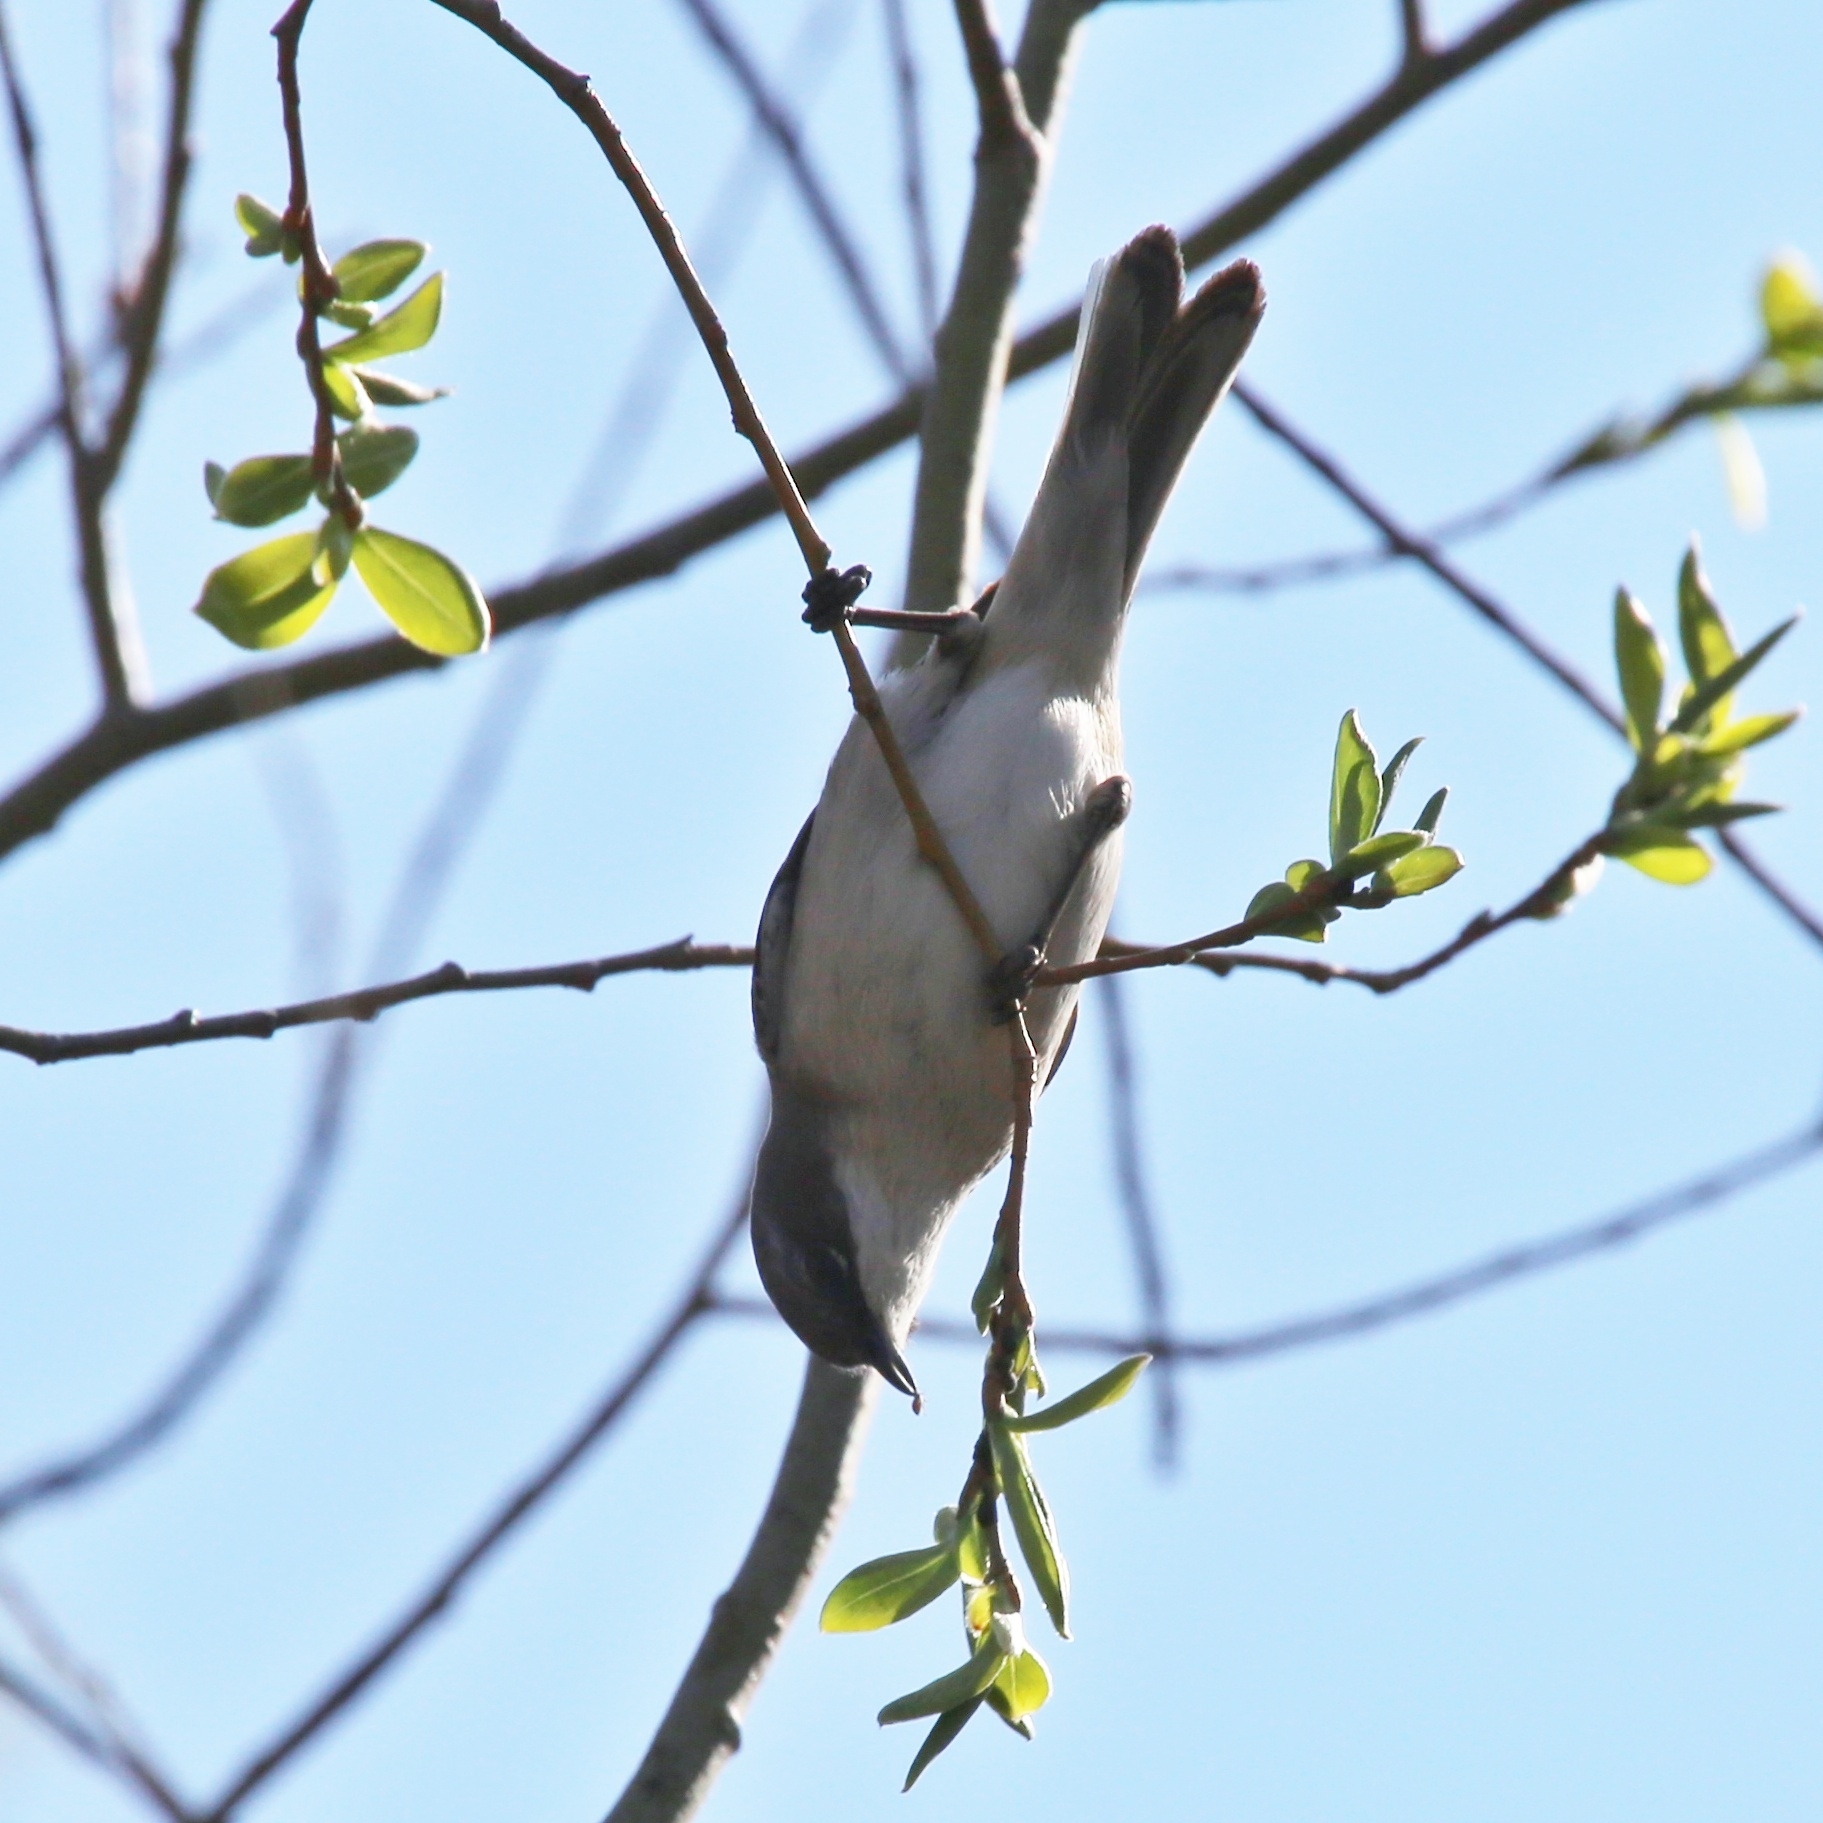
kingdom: Animalia
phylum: Chordata
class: Aves
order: Passeriformes
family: Sylviidae
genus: Sylvia
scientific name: Sylvia curruca
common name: Lesser whitethroat
